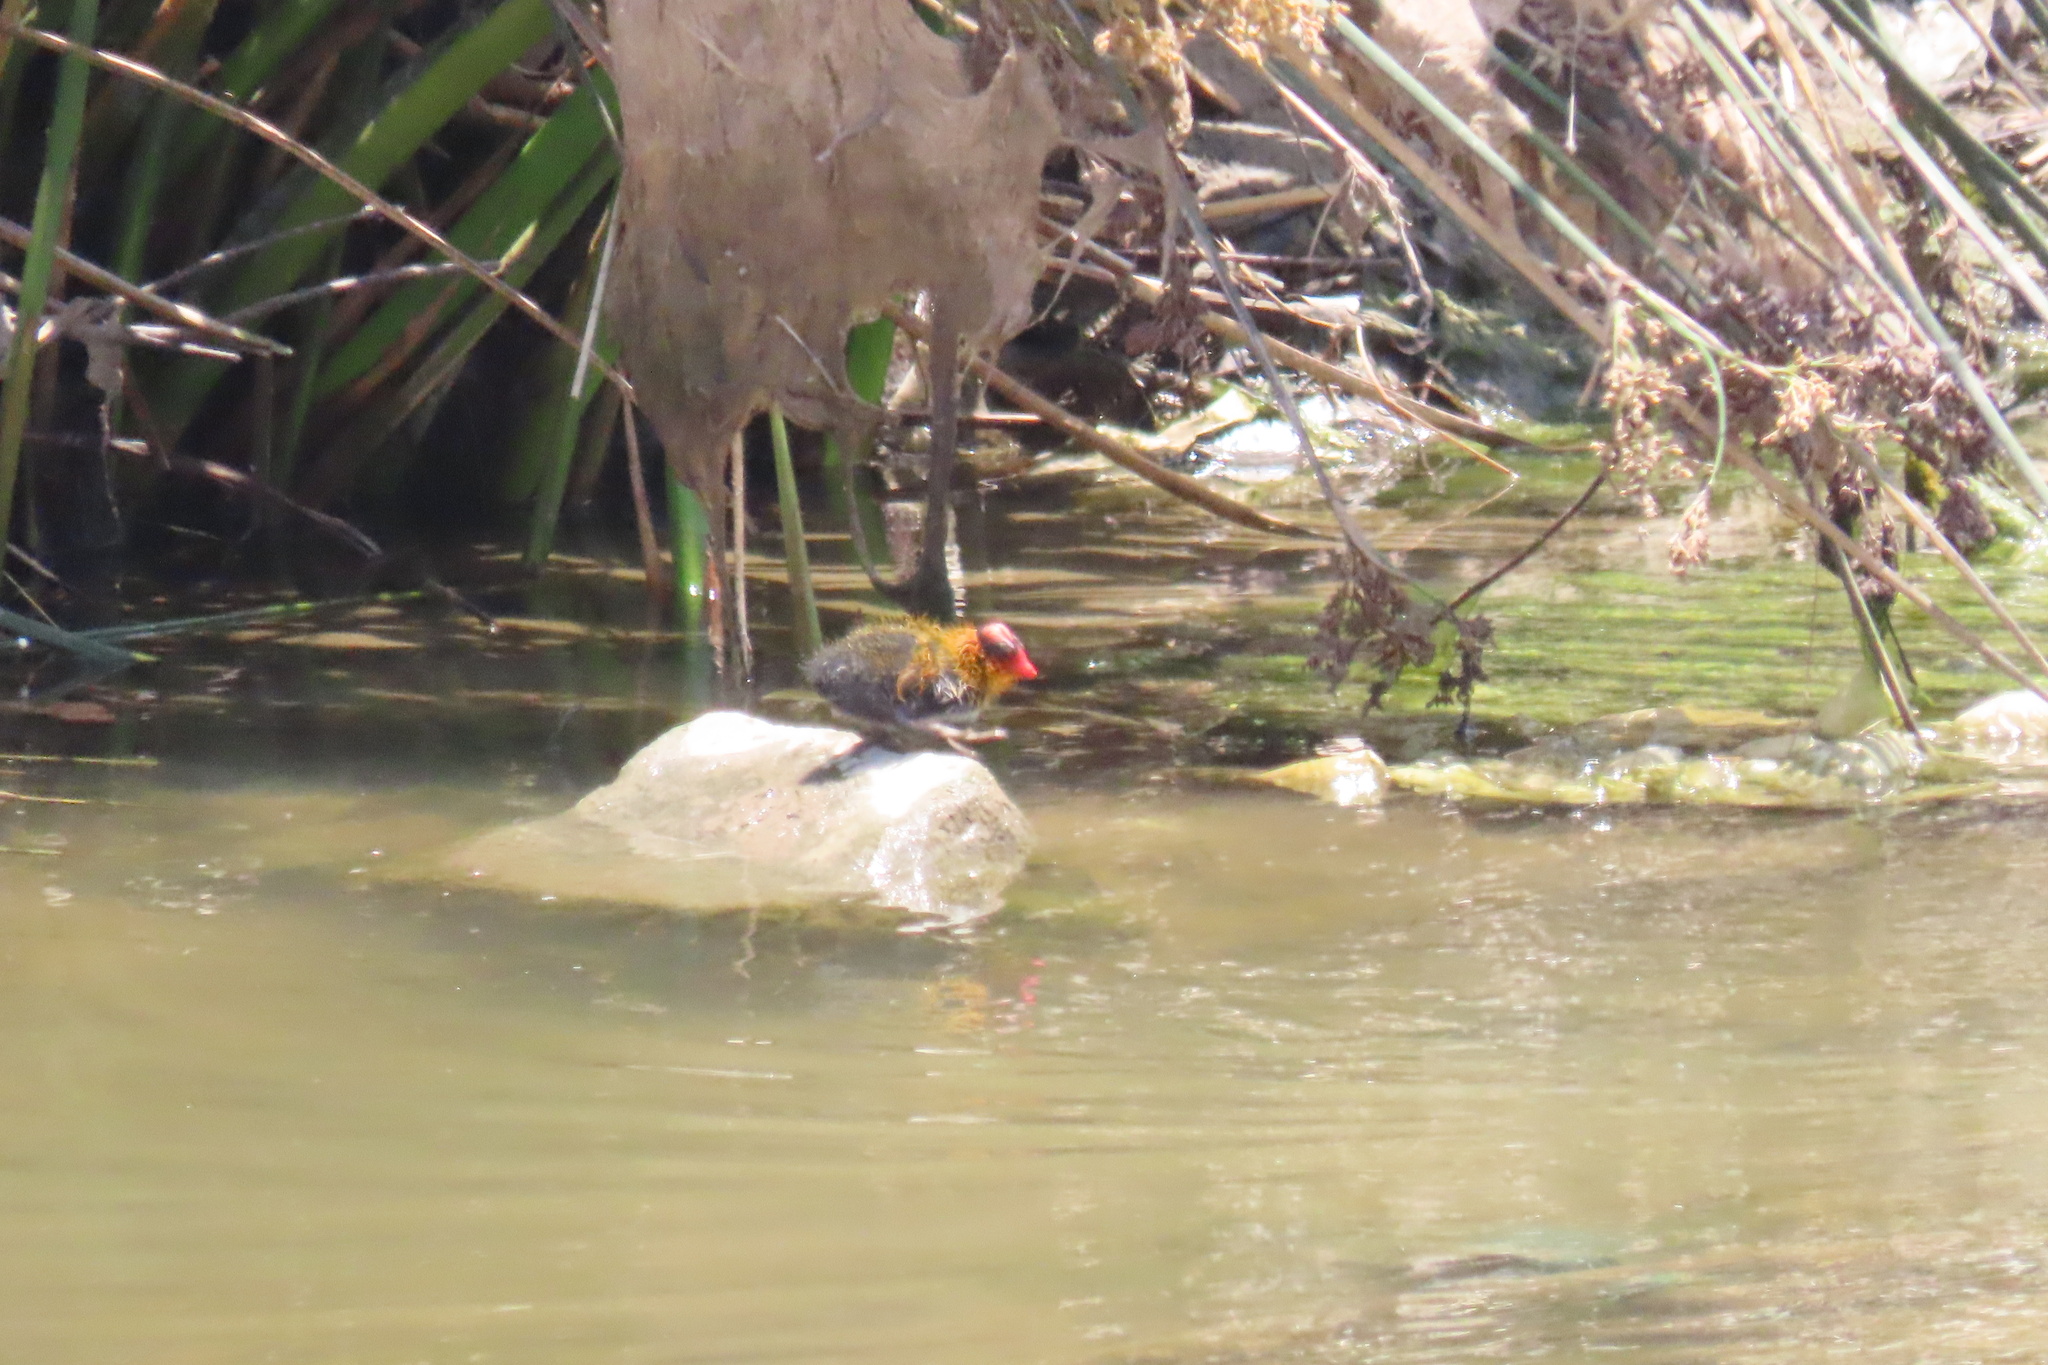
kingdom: Animalia
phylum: Chordata
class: Aves
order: Gruiformes
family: Rallidae
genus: Fulica
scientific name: Fulica americana
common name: American coot
